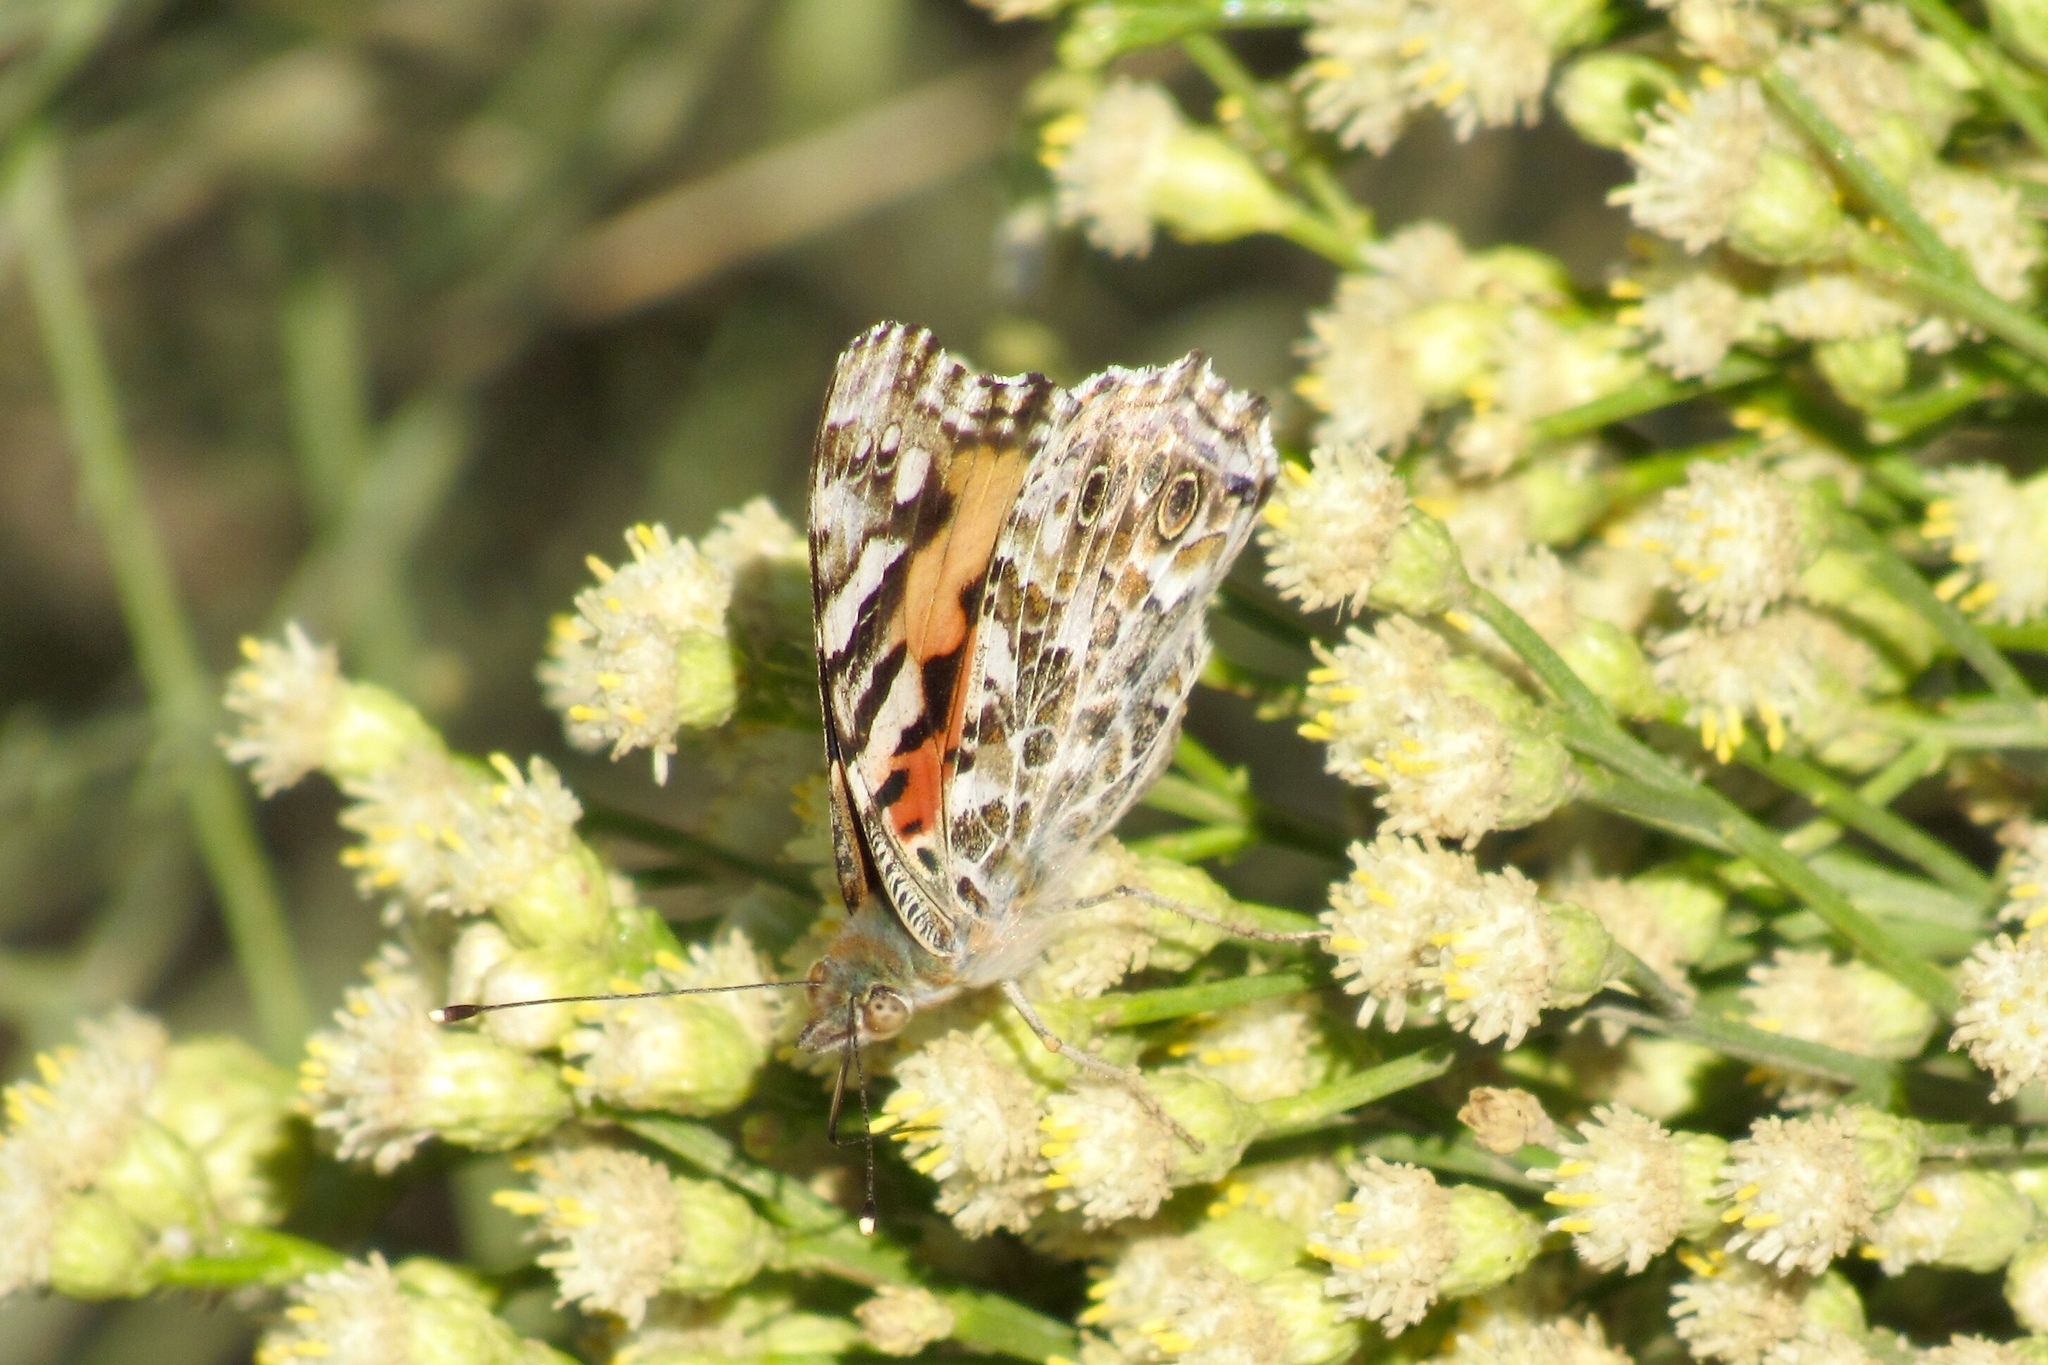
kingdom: Animalia
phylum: Arthropoda
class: Insecta
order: Lepidoptera
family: Nymphalidae
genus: Vanessa
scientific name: Vanessa cardui
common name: Painted lady
